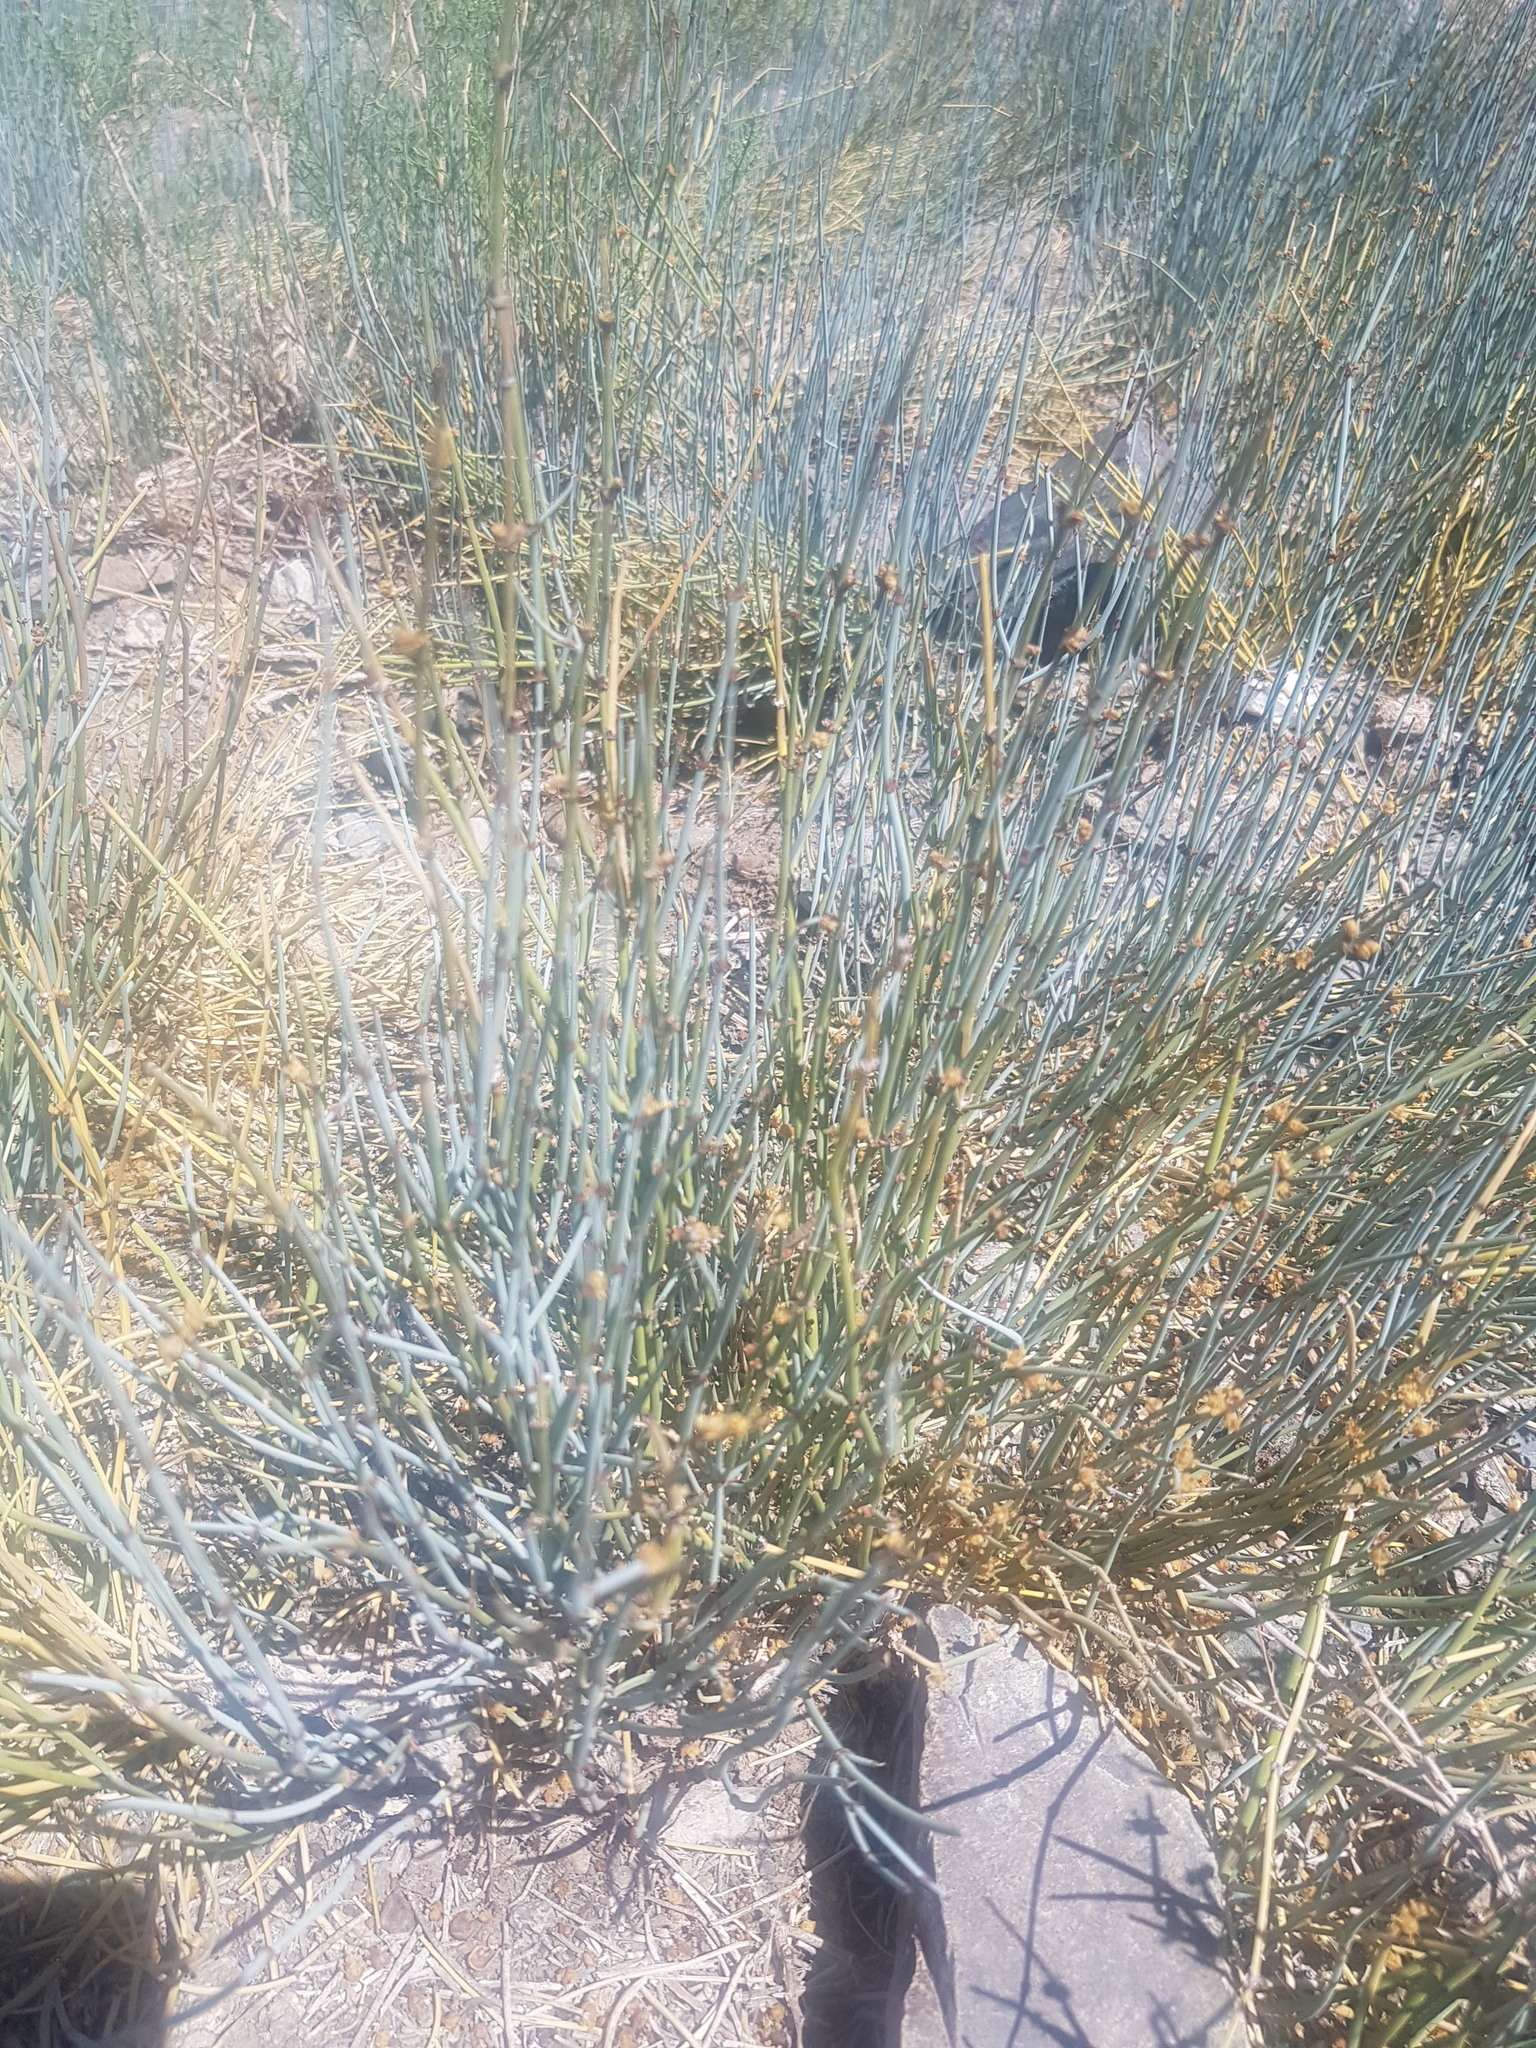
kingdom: Plantae
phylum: Tracheophyta
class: Gnetopsida
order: Ephedrales
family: Ephedraceae
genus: Ephedra
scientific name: Ephedra equisetina
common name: Mongolian ephedra
